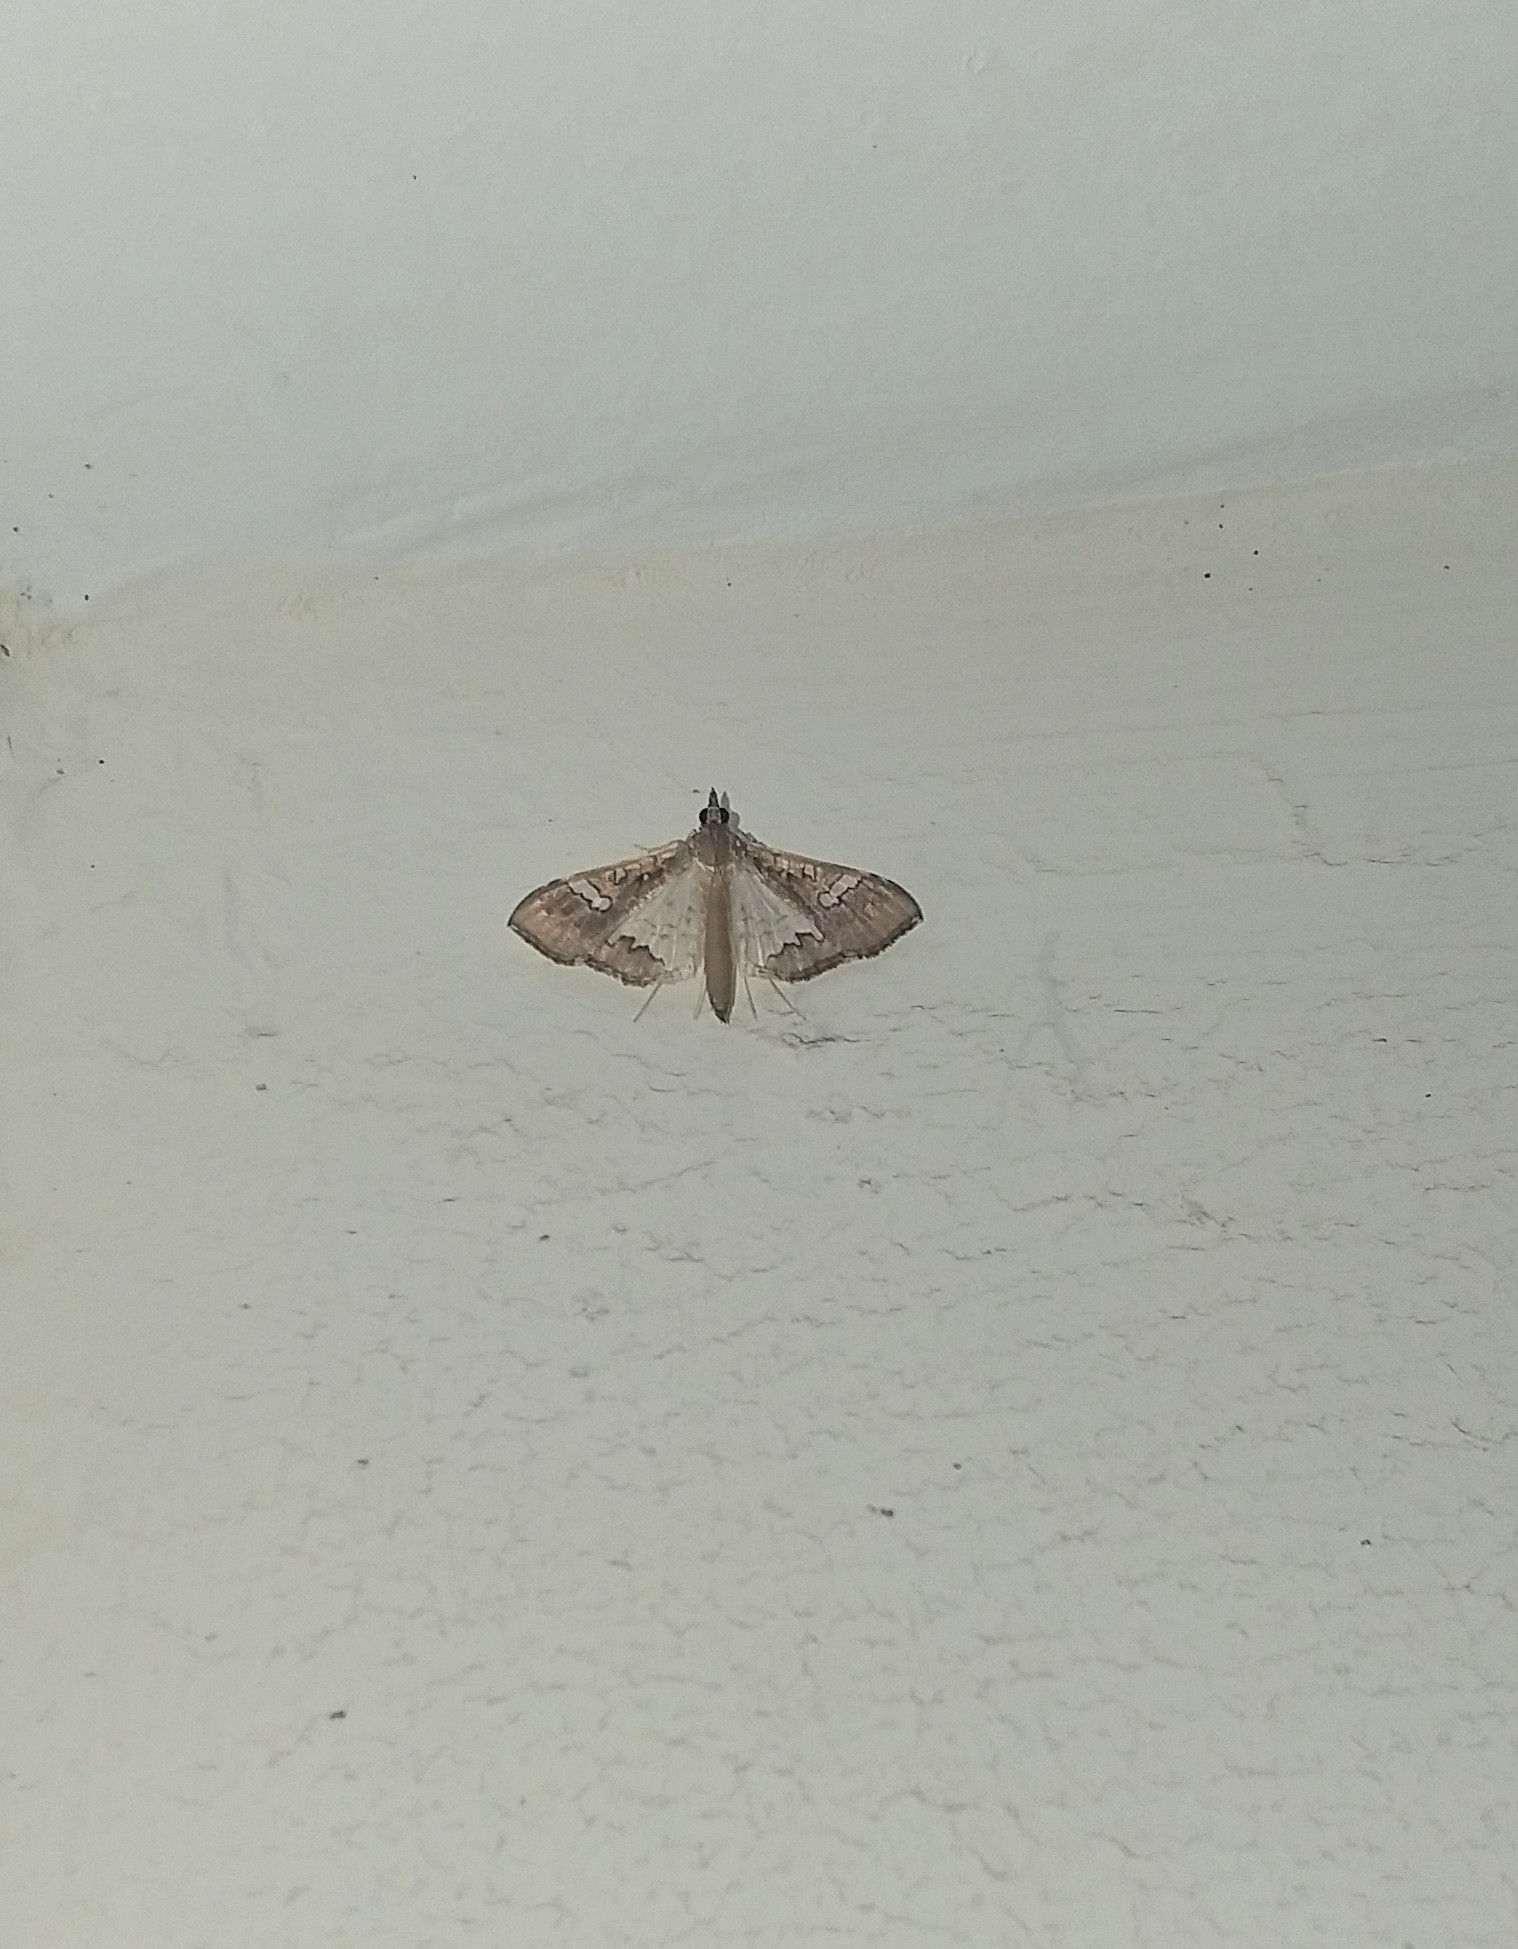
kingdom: Animalia
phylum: Arthropoda
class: Insecta
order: Lepidoptera
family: Crambidae
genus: Maruca
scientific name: Maruca vitrata
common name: Maruca pod borer
